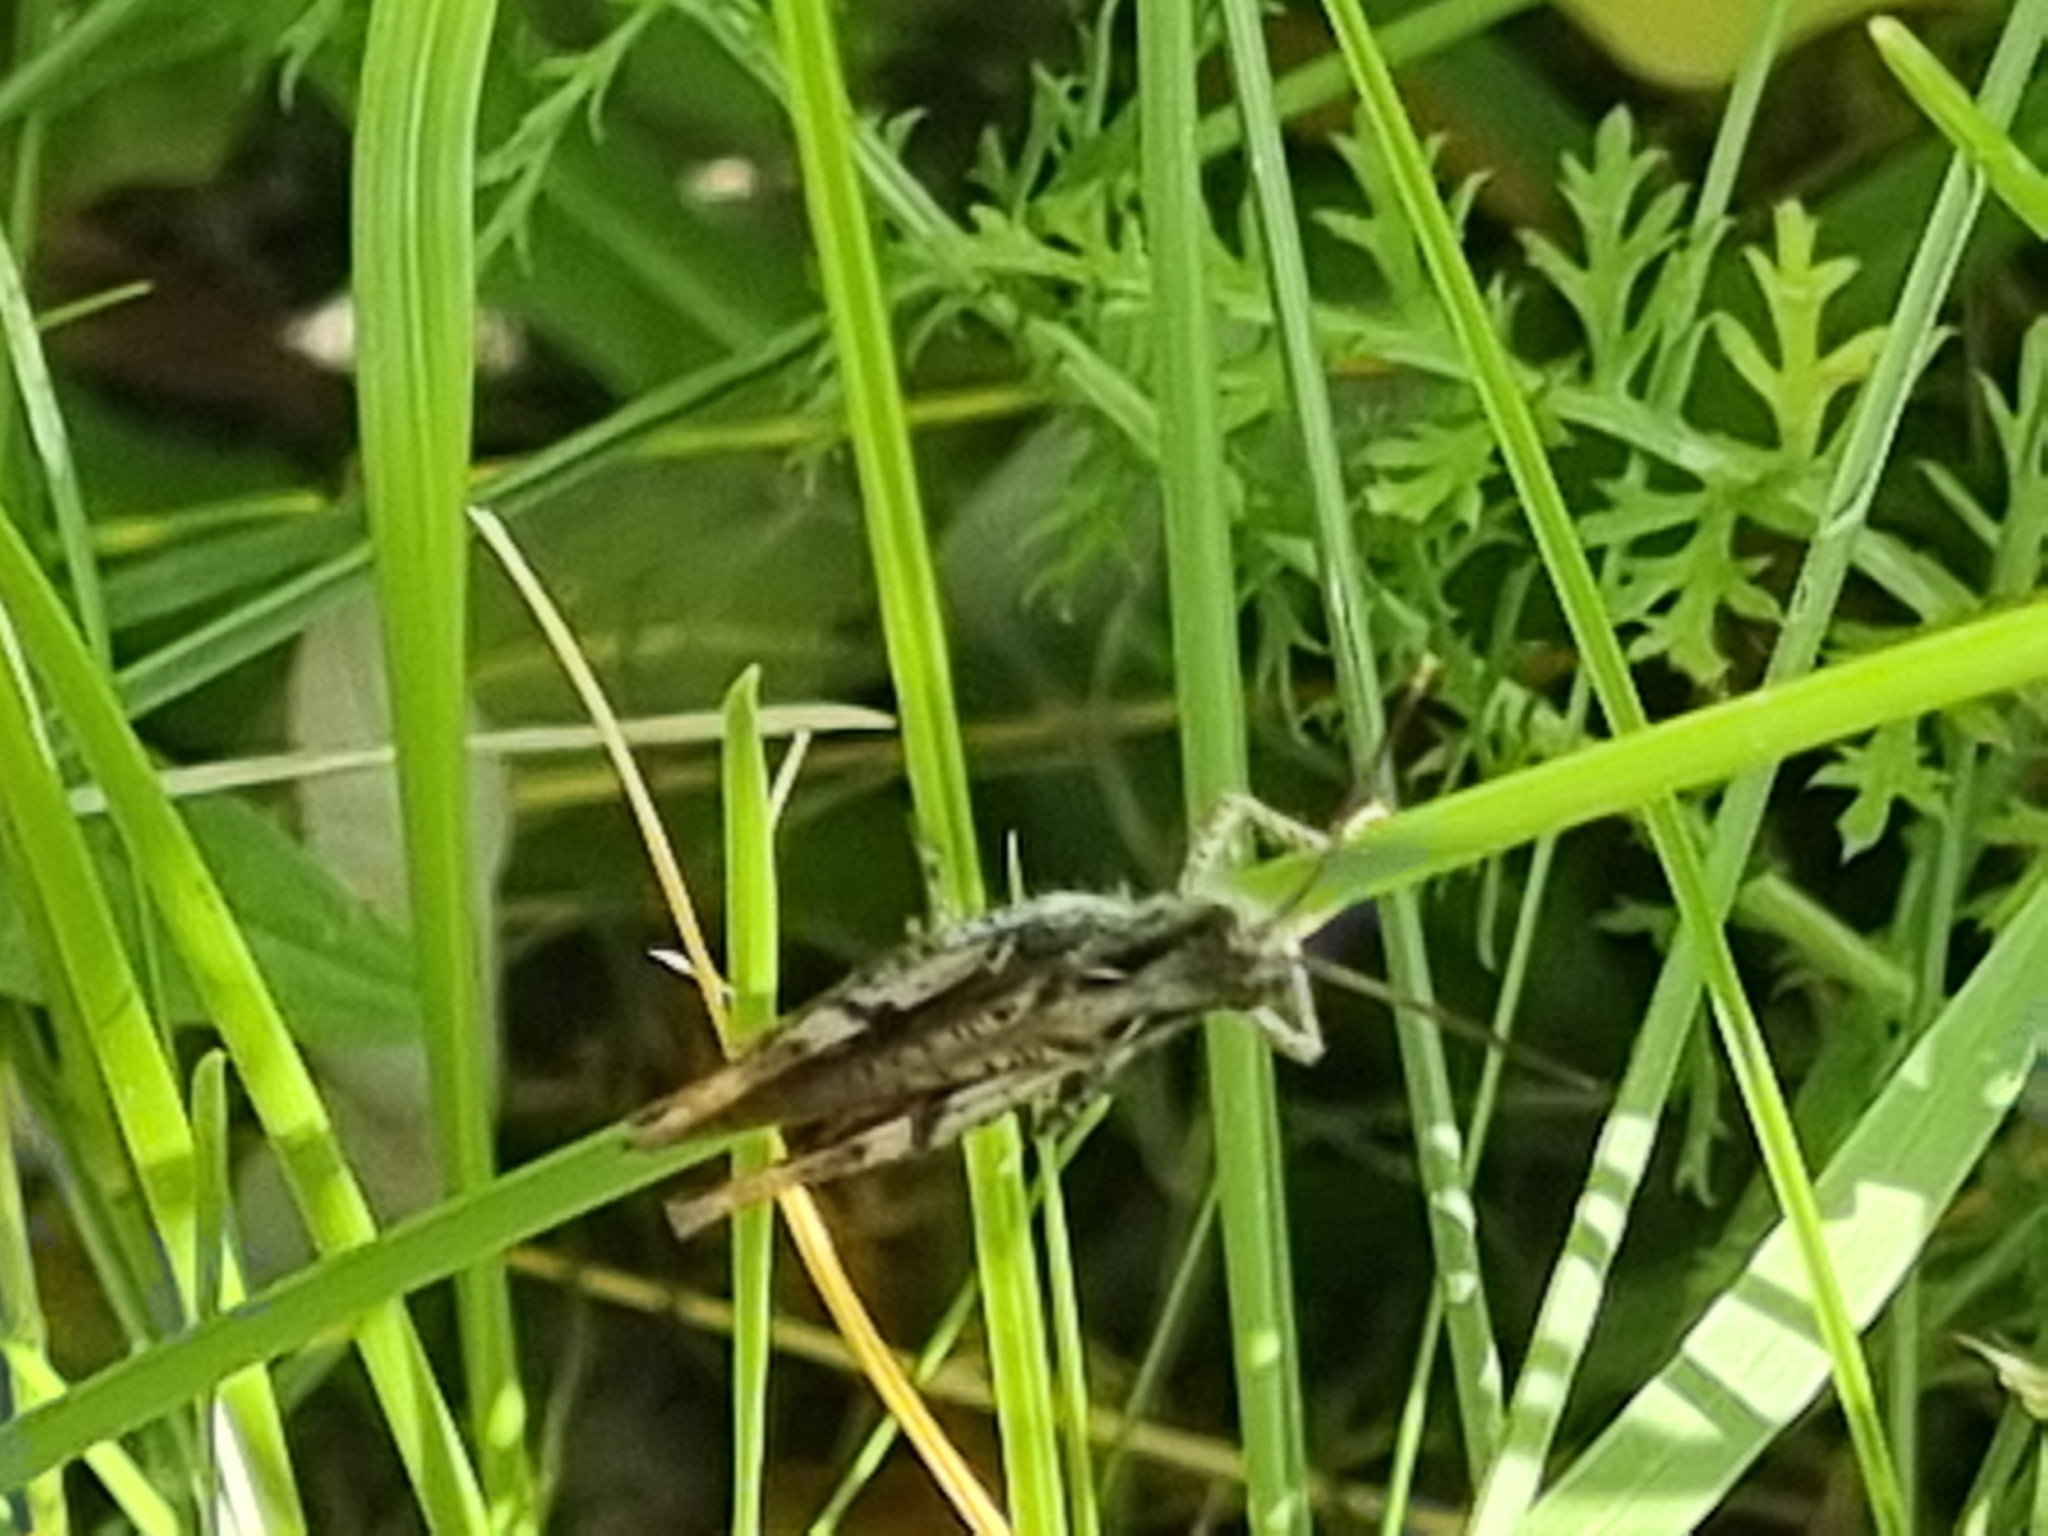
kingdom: Animalia
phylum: Arthropoda
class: Insecta
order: Orthoptera
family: Acrididae
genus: Chorthippus
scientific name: Chorthippus brunneus
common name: Field grasshopper
